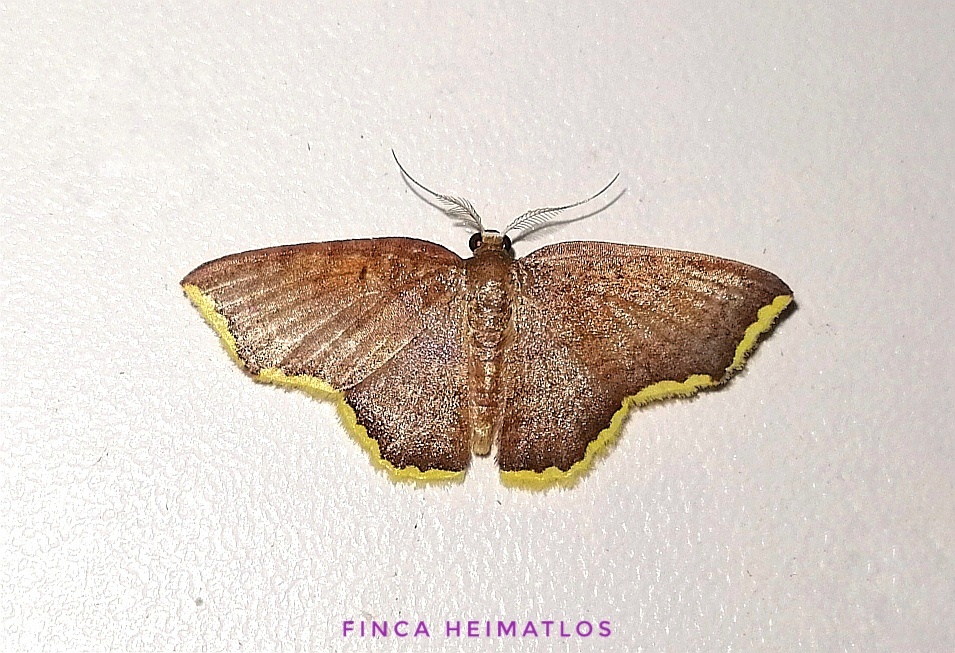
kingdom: Animalia
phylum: Arthropoda
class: Insecta
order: Lepidoptera
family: Geometridae
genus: Eois
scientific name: Eois catana
